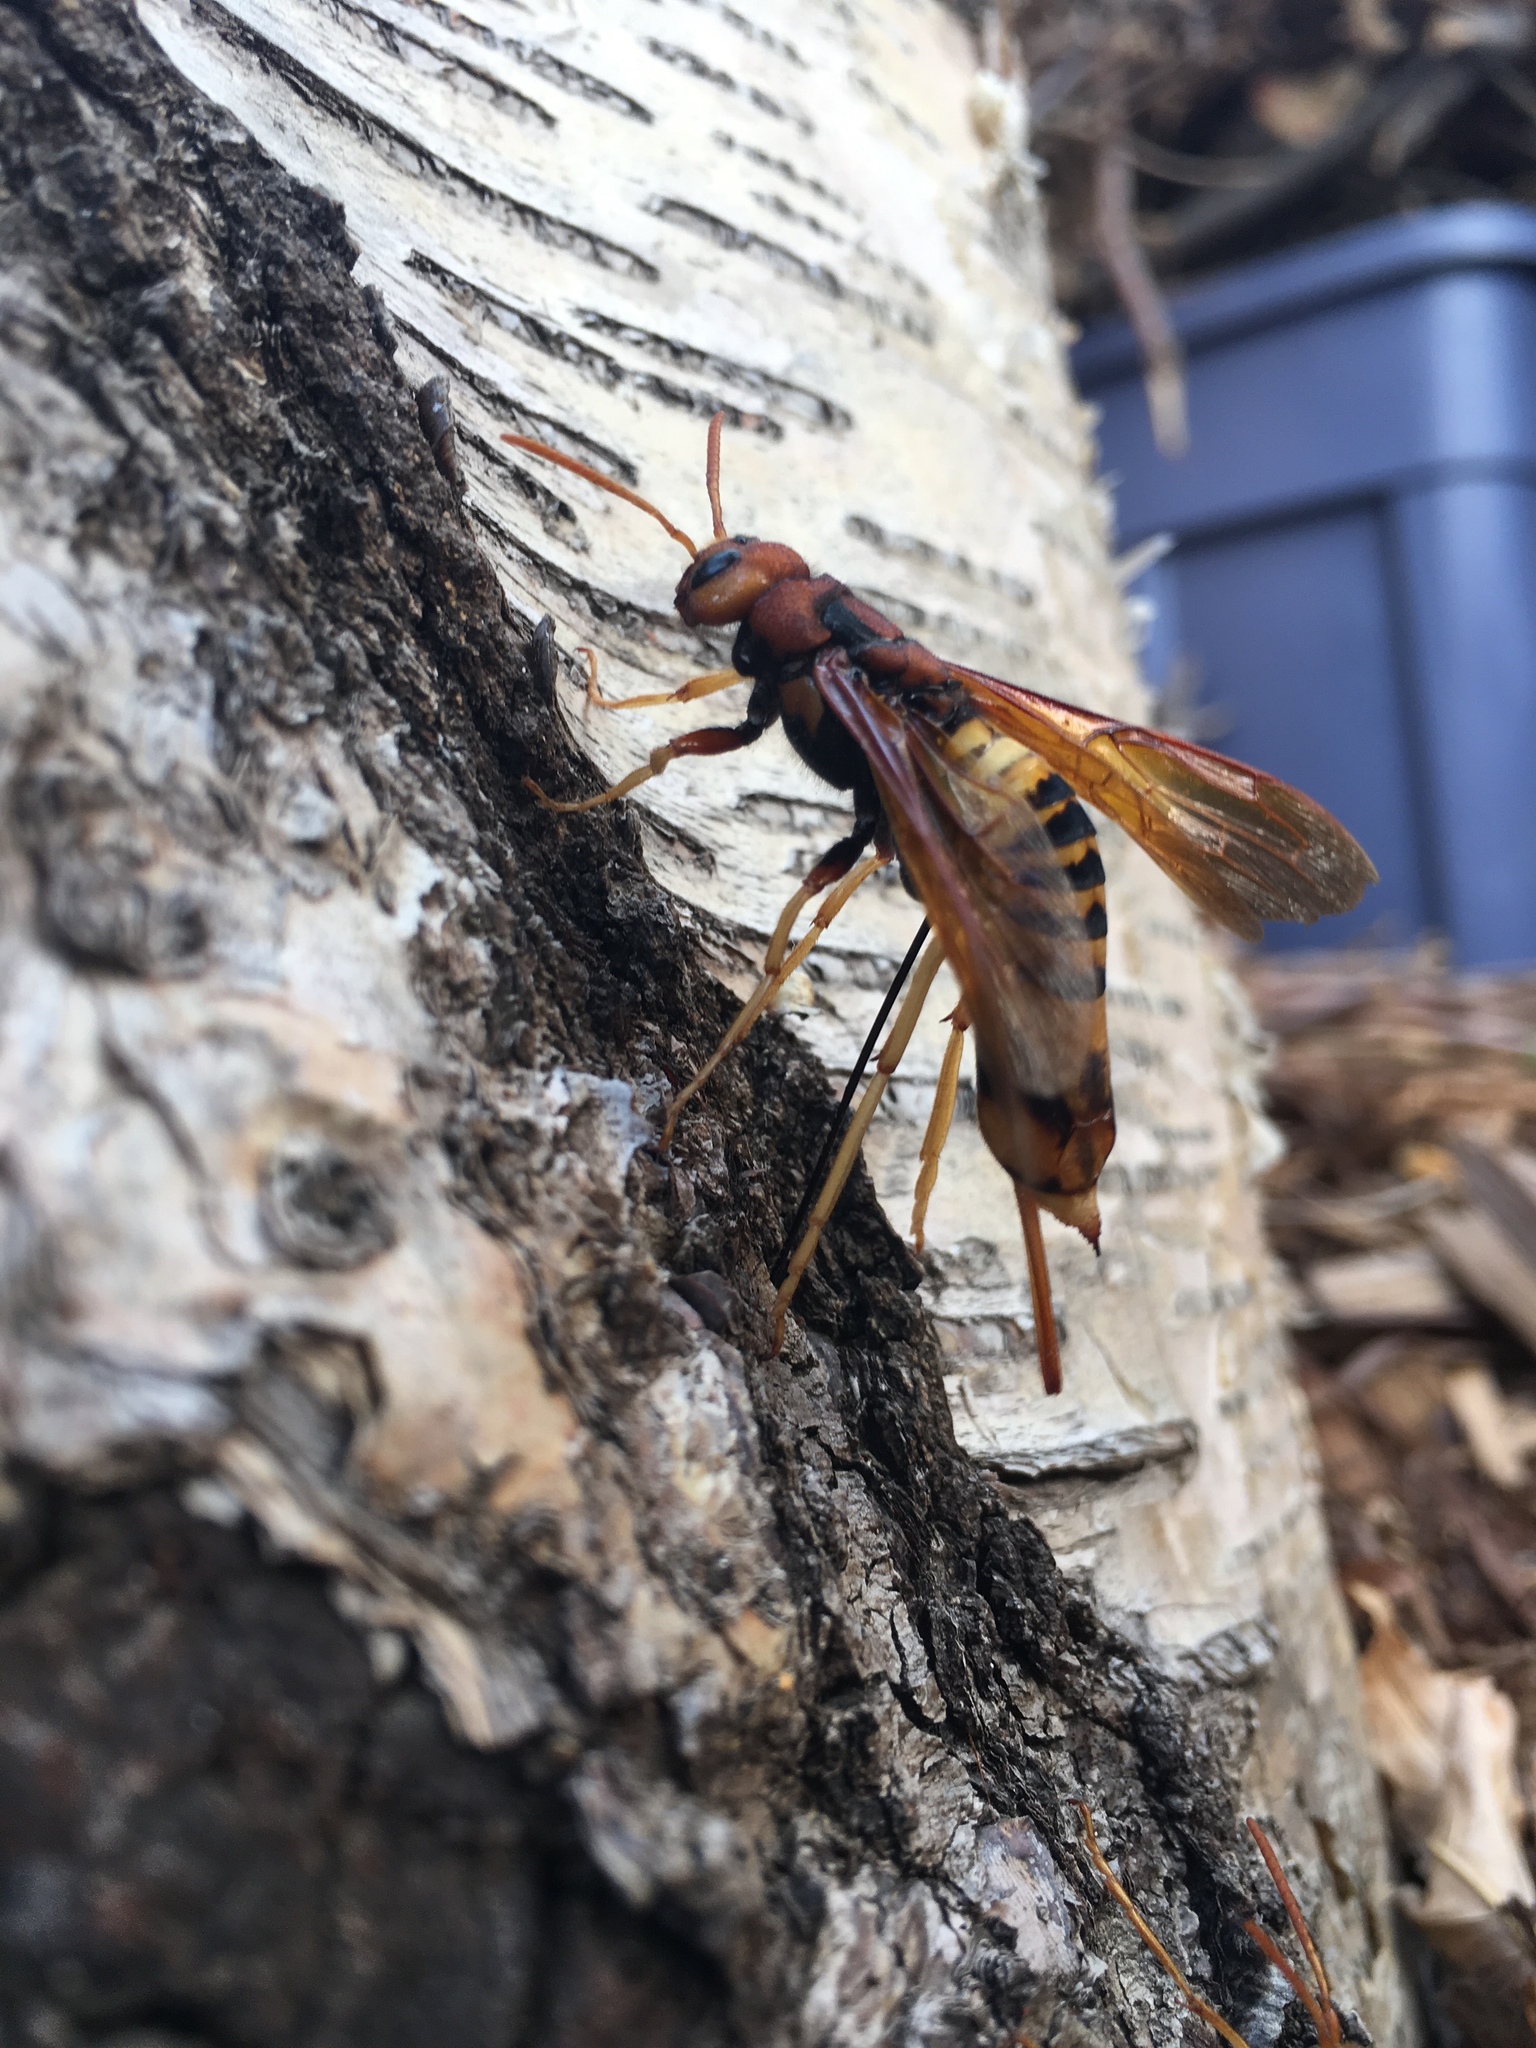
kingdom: Animalia
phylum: Arthropoda
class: Insecta
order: Hymenoptera
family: Siricidae
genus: Tremex
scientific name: Tremex columba
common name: Wasp
